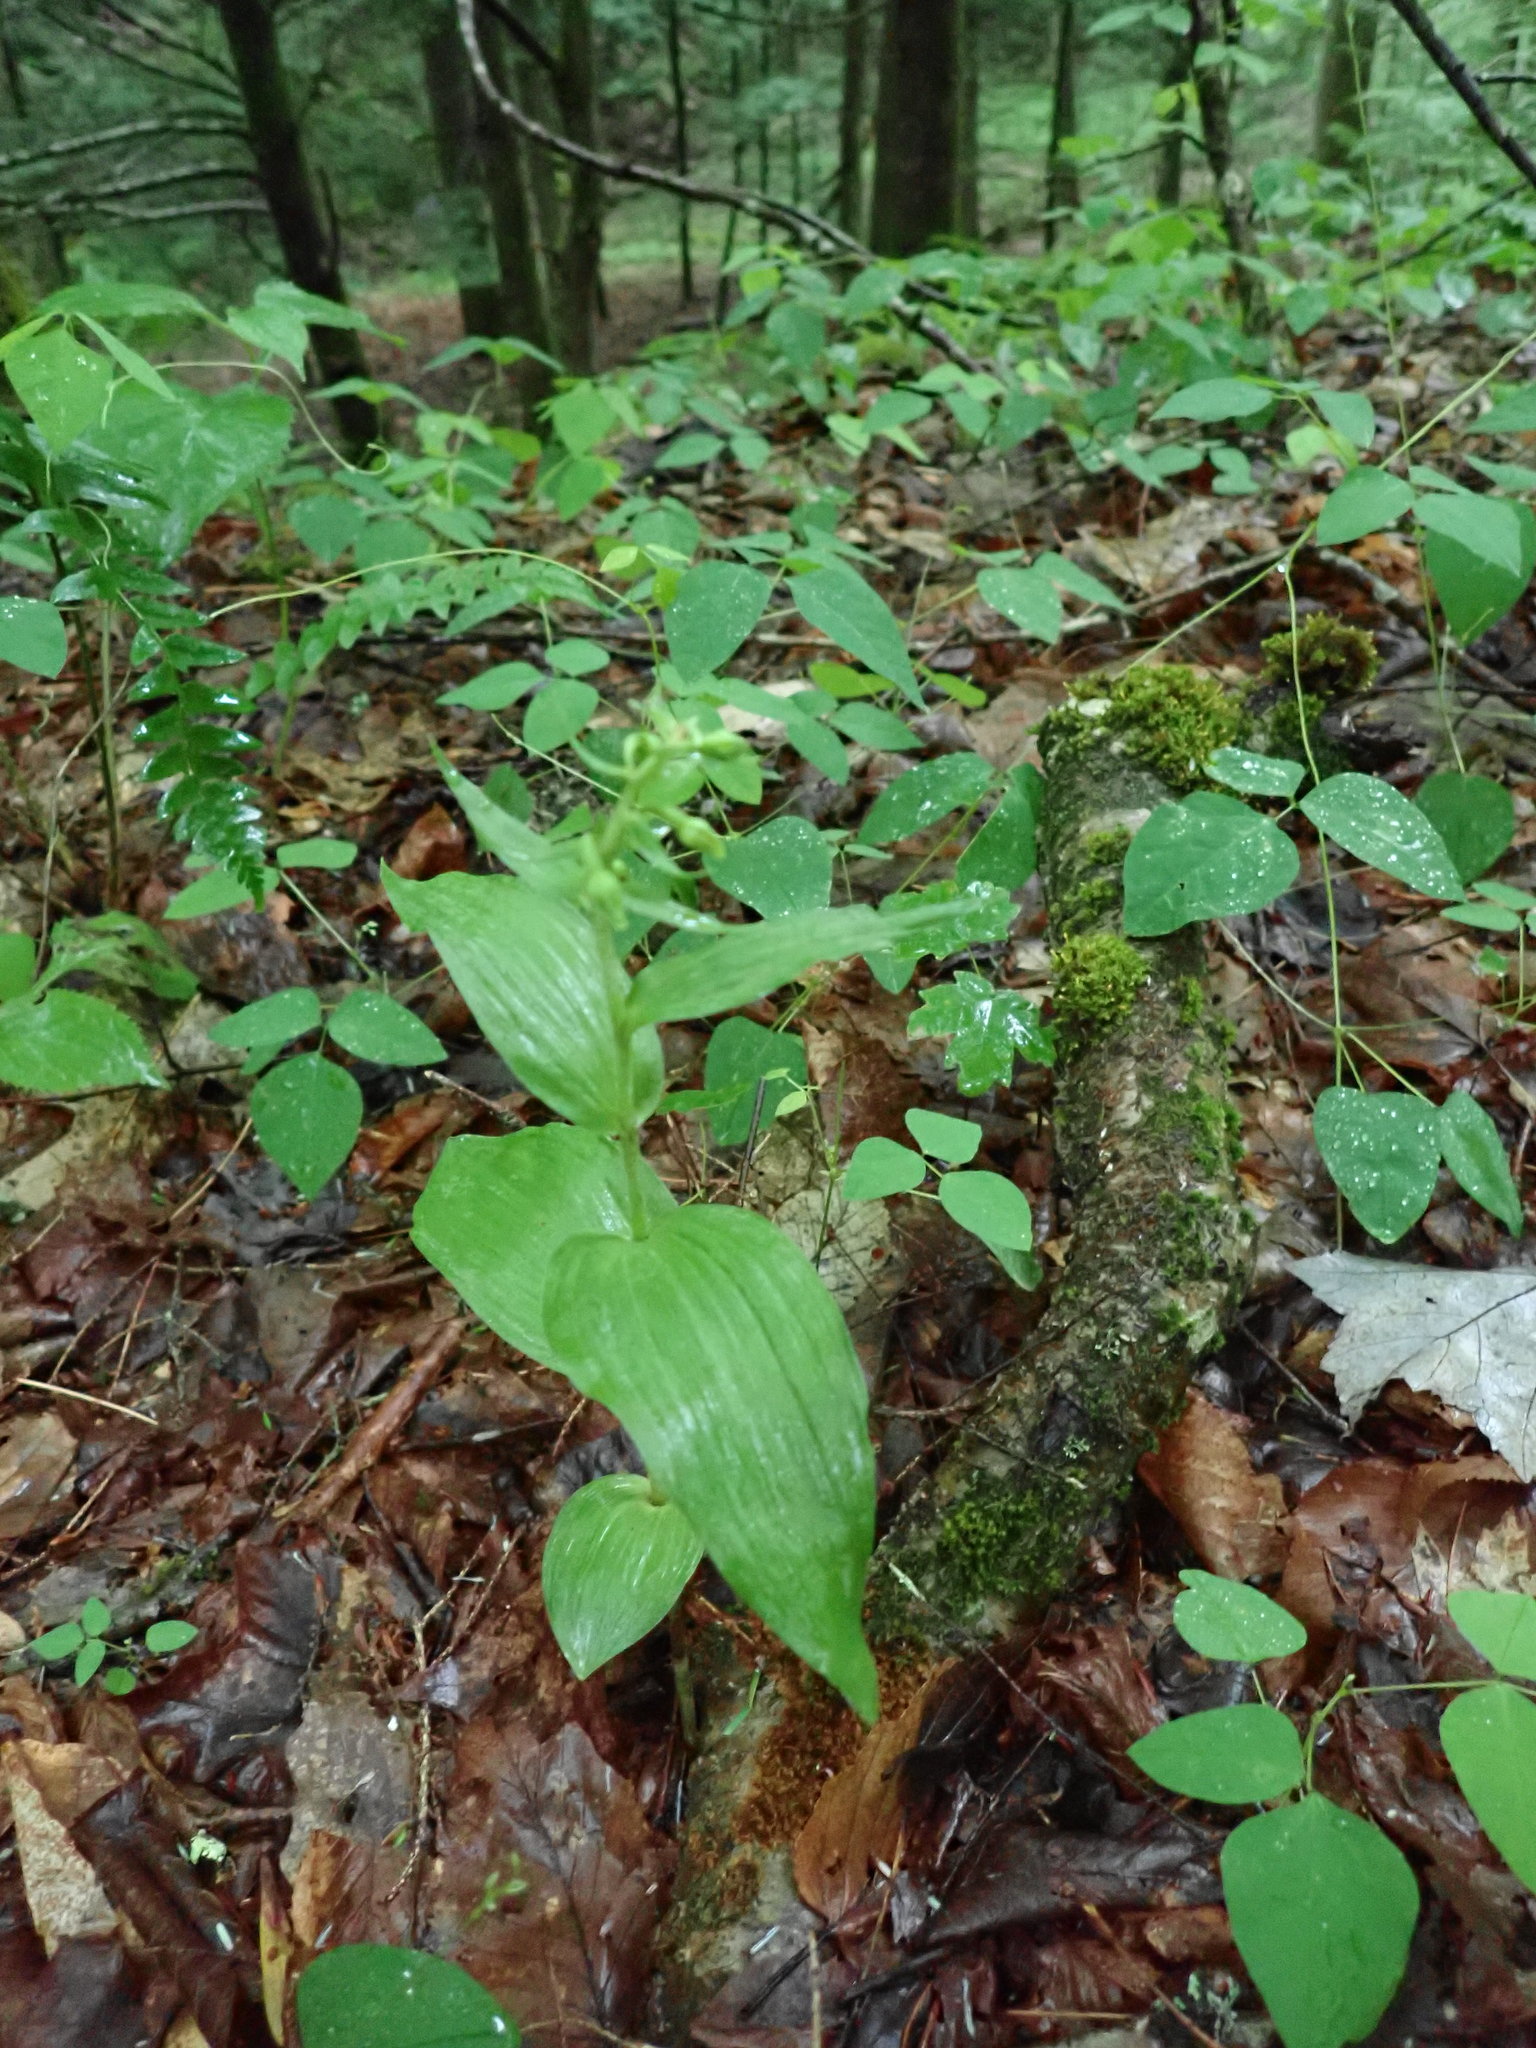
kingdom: Plantae
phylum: Tracheophyta
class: Liliopsida
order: Asparagales
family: Orchidaceae
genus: Epipactis
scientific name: Epipactis helleborine
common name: Broad-leaved helleborine
